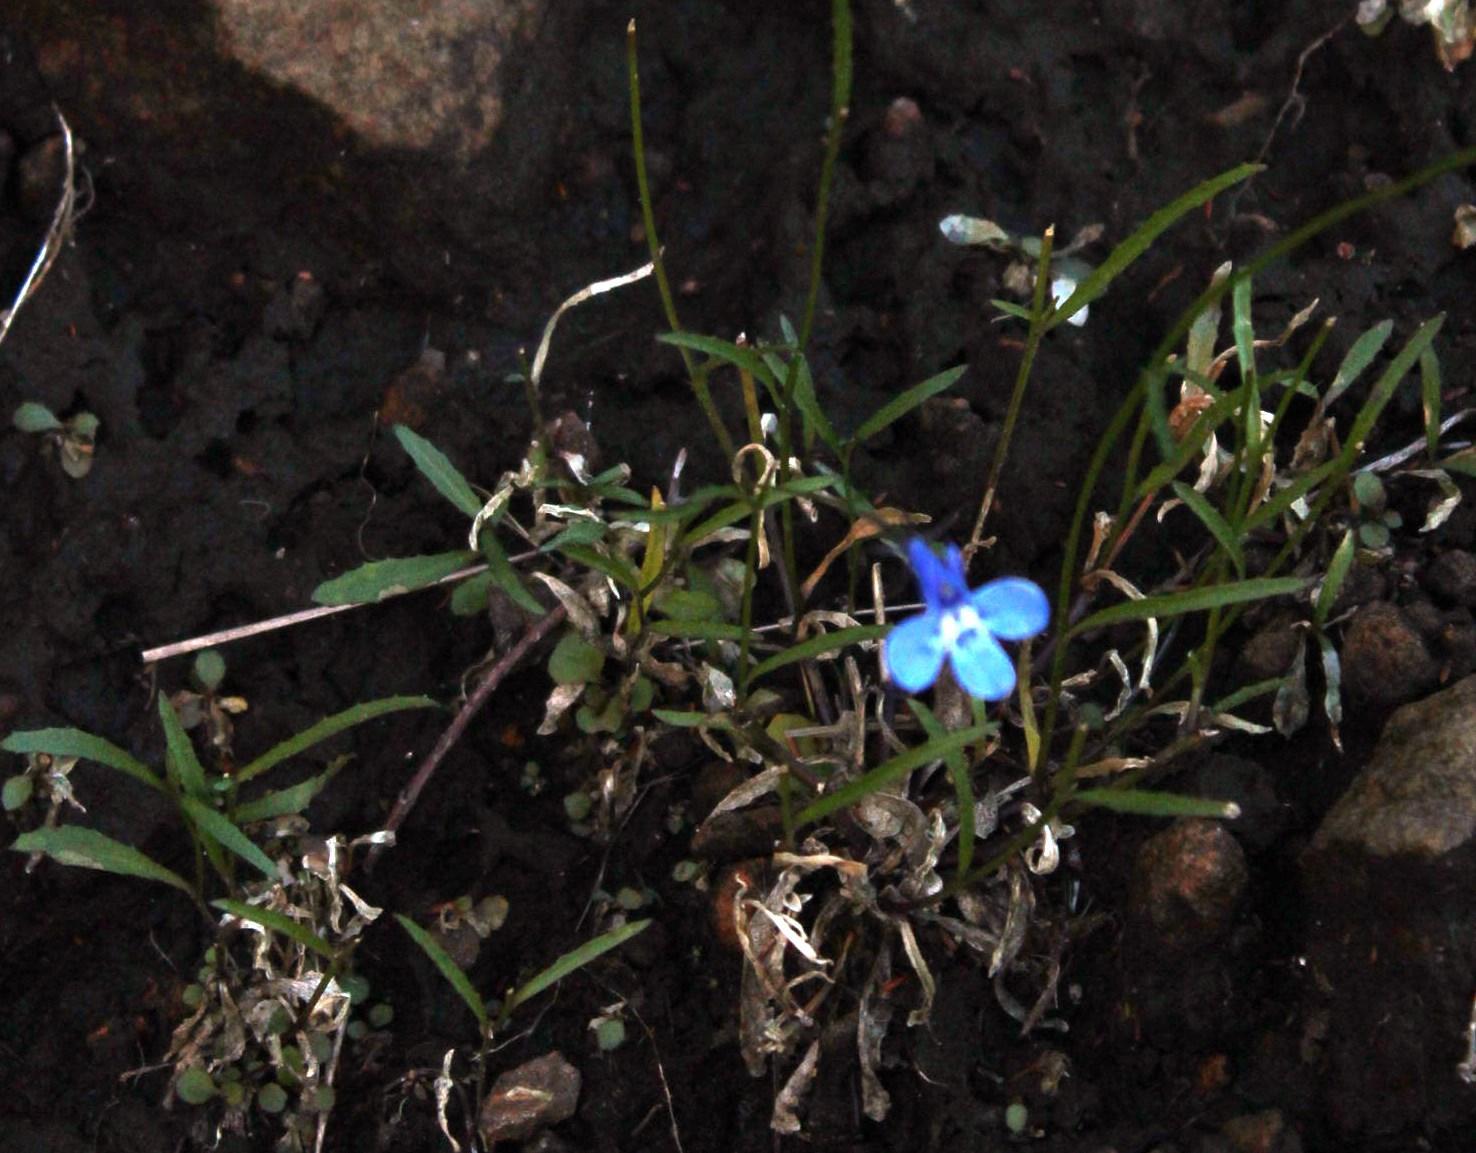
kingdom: Plantae
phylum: Tracheophyta
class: Magnoliopsida
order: Asterales
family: Campanulaceae
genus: Lobelia
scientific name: Lobelia flaccida
